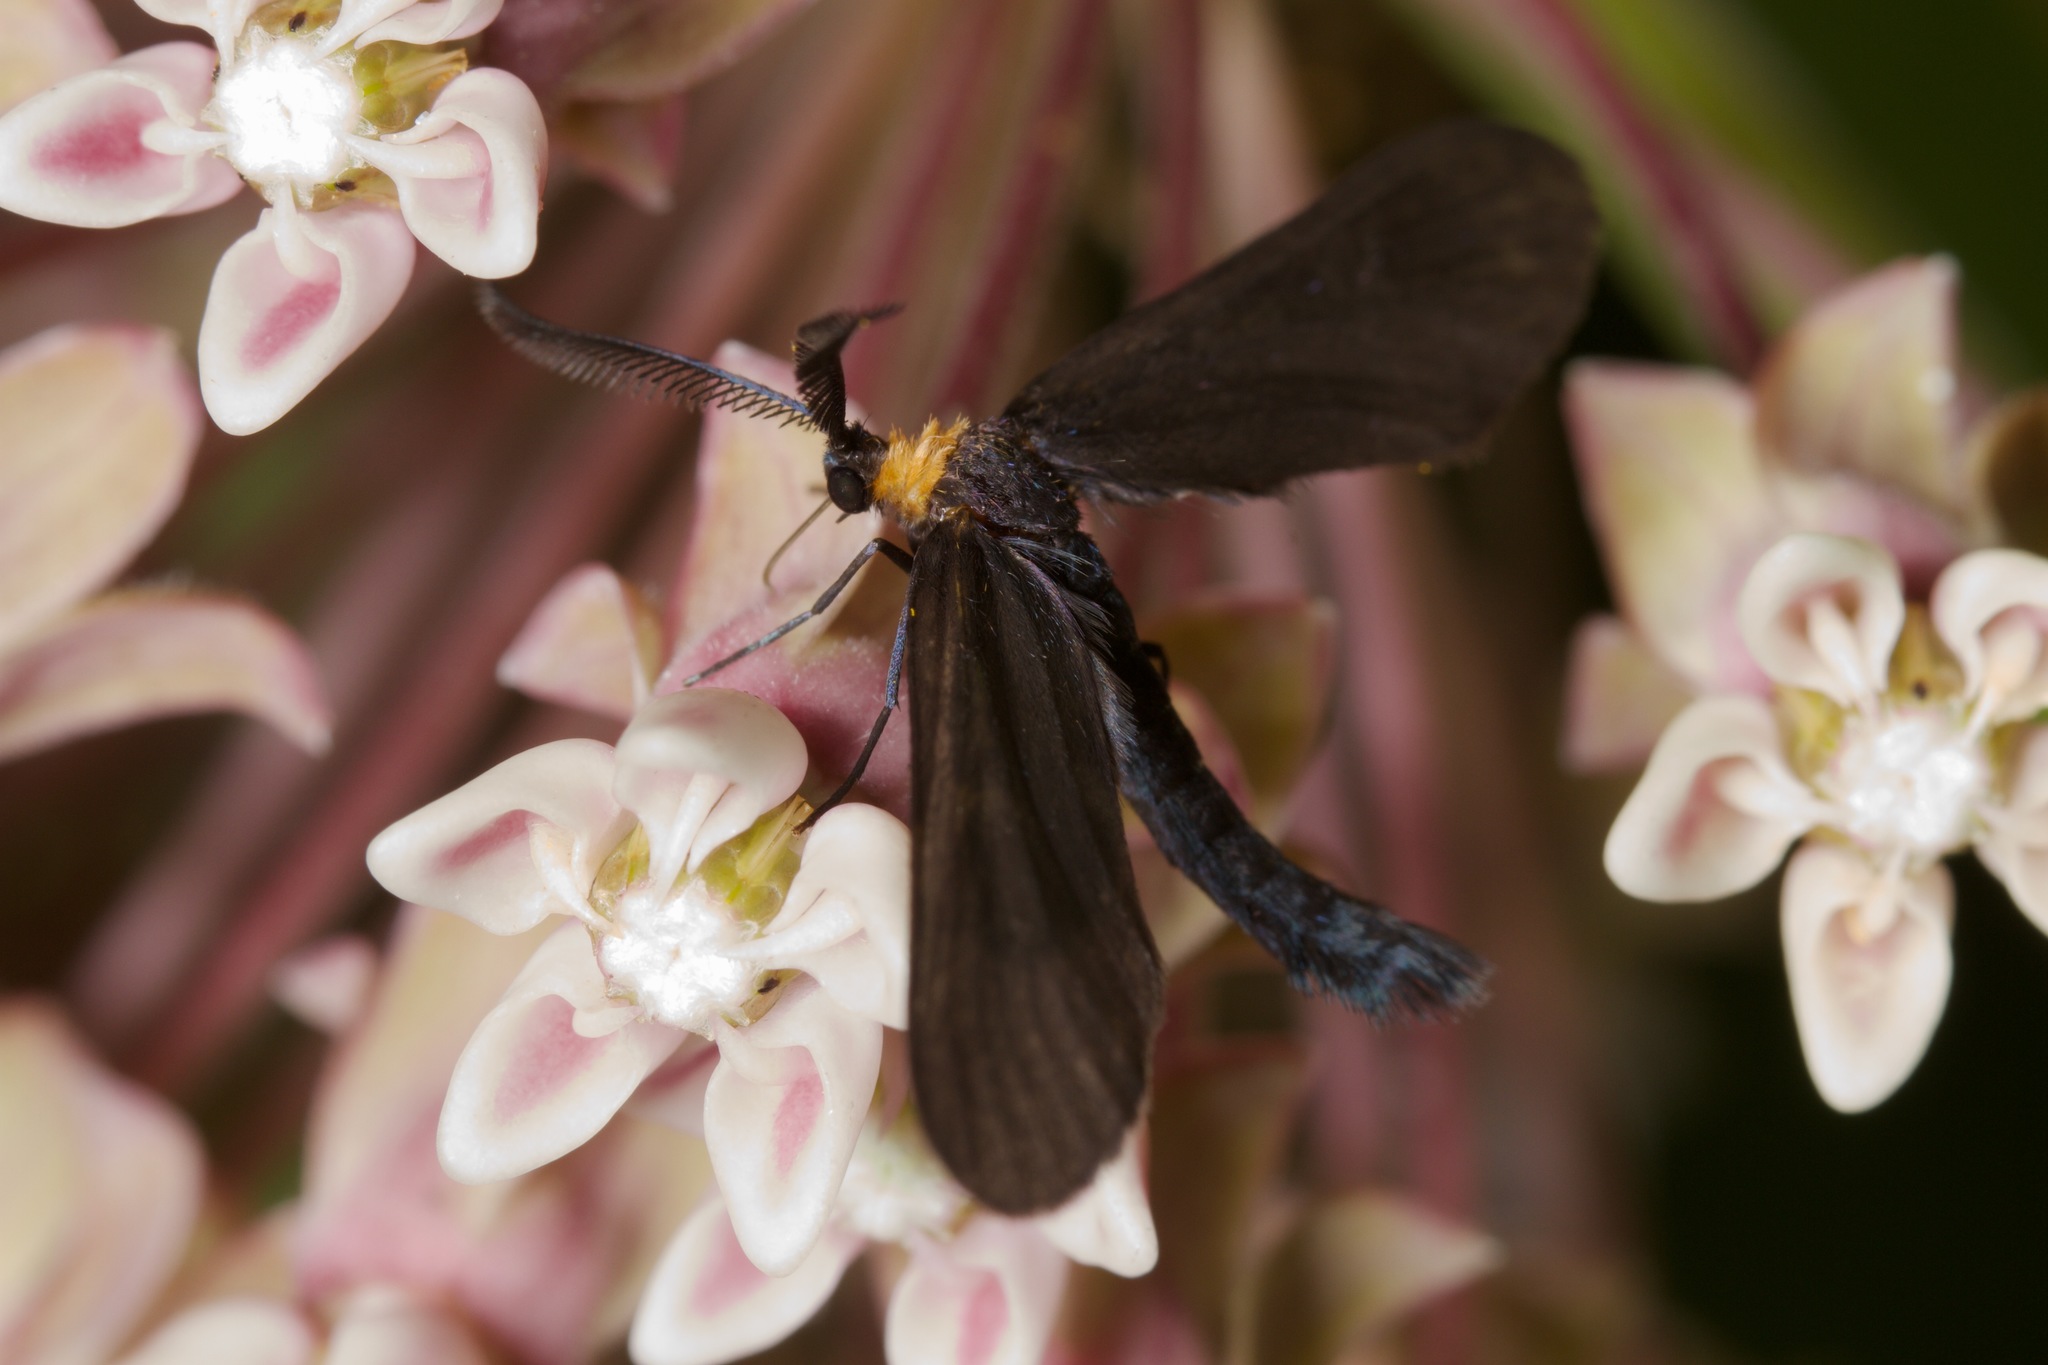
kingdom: Animalia
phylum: Arthropoda
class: Insecta
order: Lepidoptera
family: Zygaenidae
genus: Harrisina
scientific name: Harrisina americana
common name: Grapeleaf skeletonizer moth
